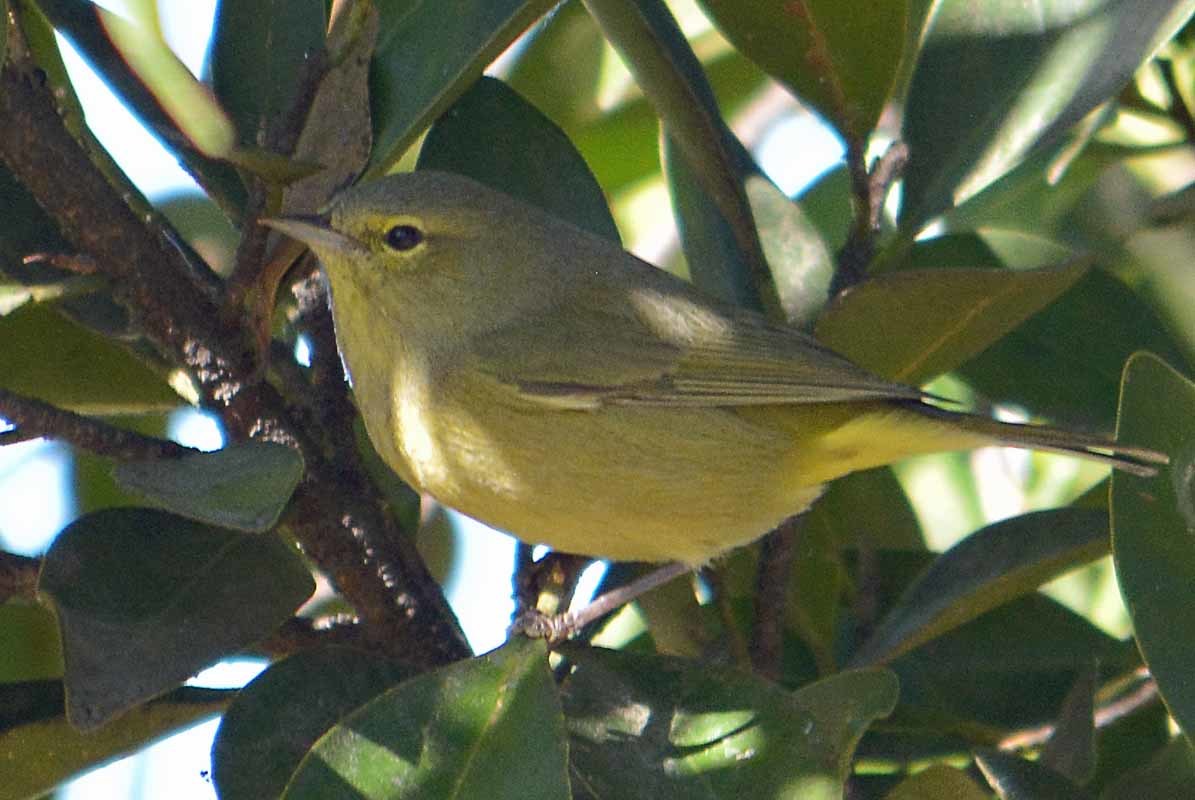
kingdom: Animalia
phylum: Chordata
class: Aves
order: Passeriformes
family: Parulidae
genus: Leiothlypis
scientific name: Leiothlypis celata
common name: Orange-crowned warbler
